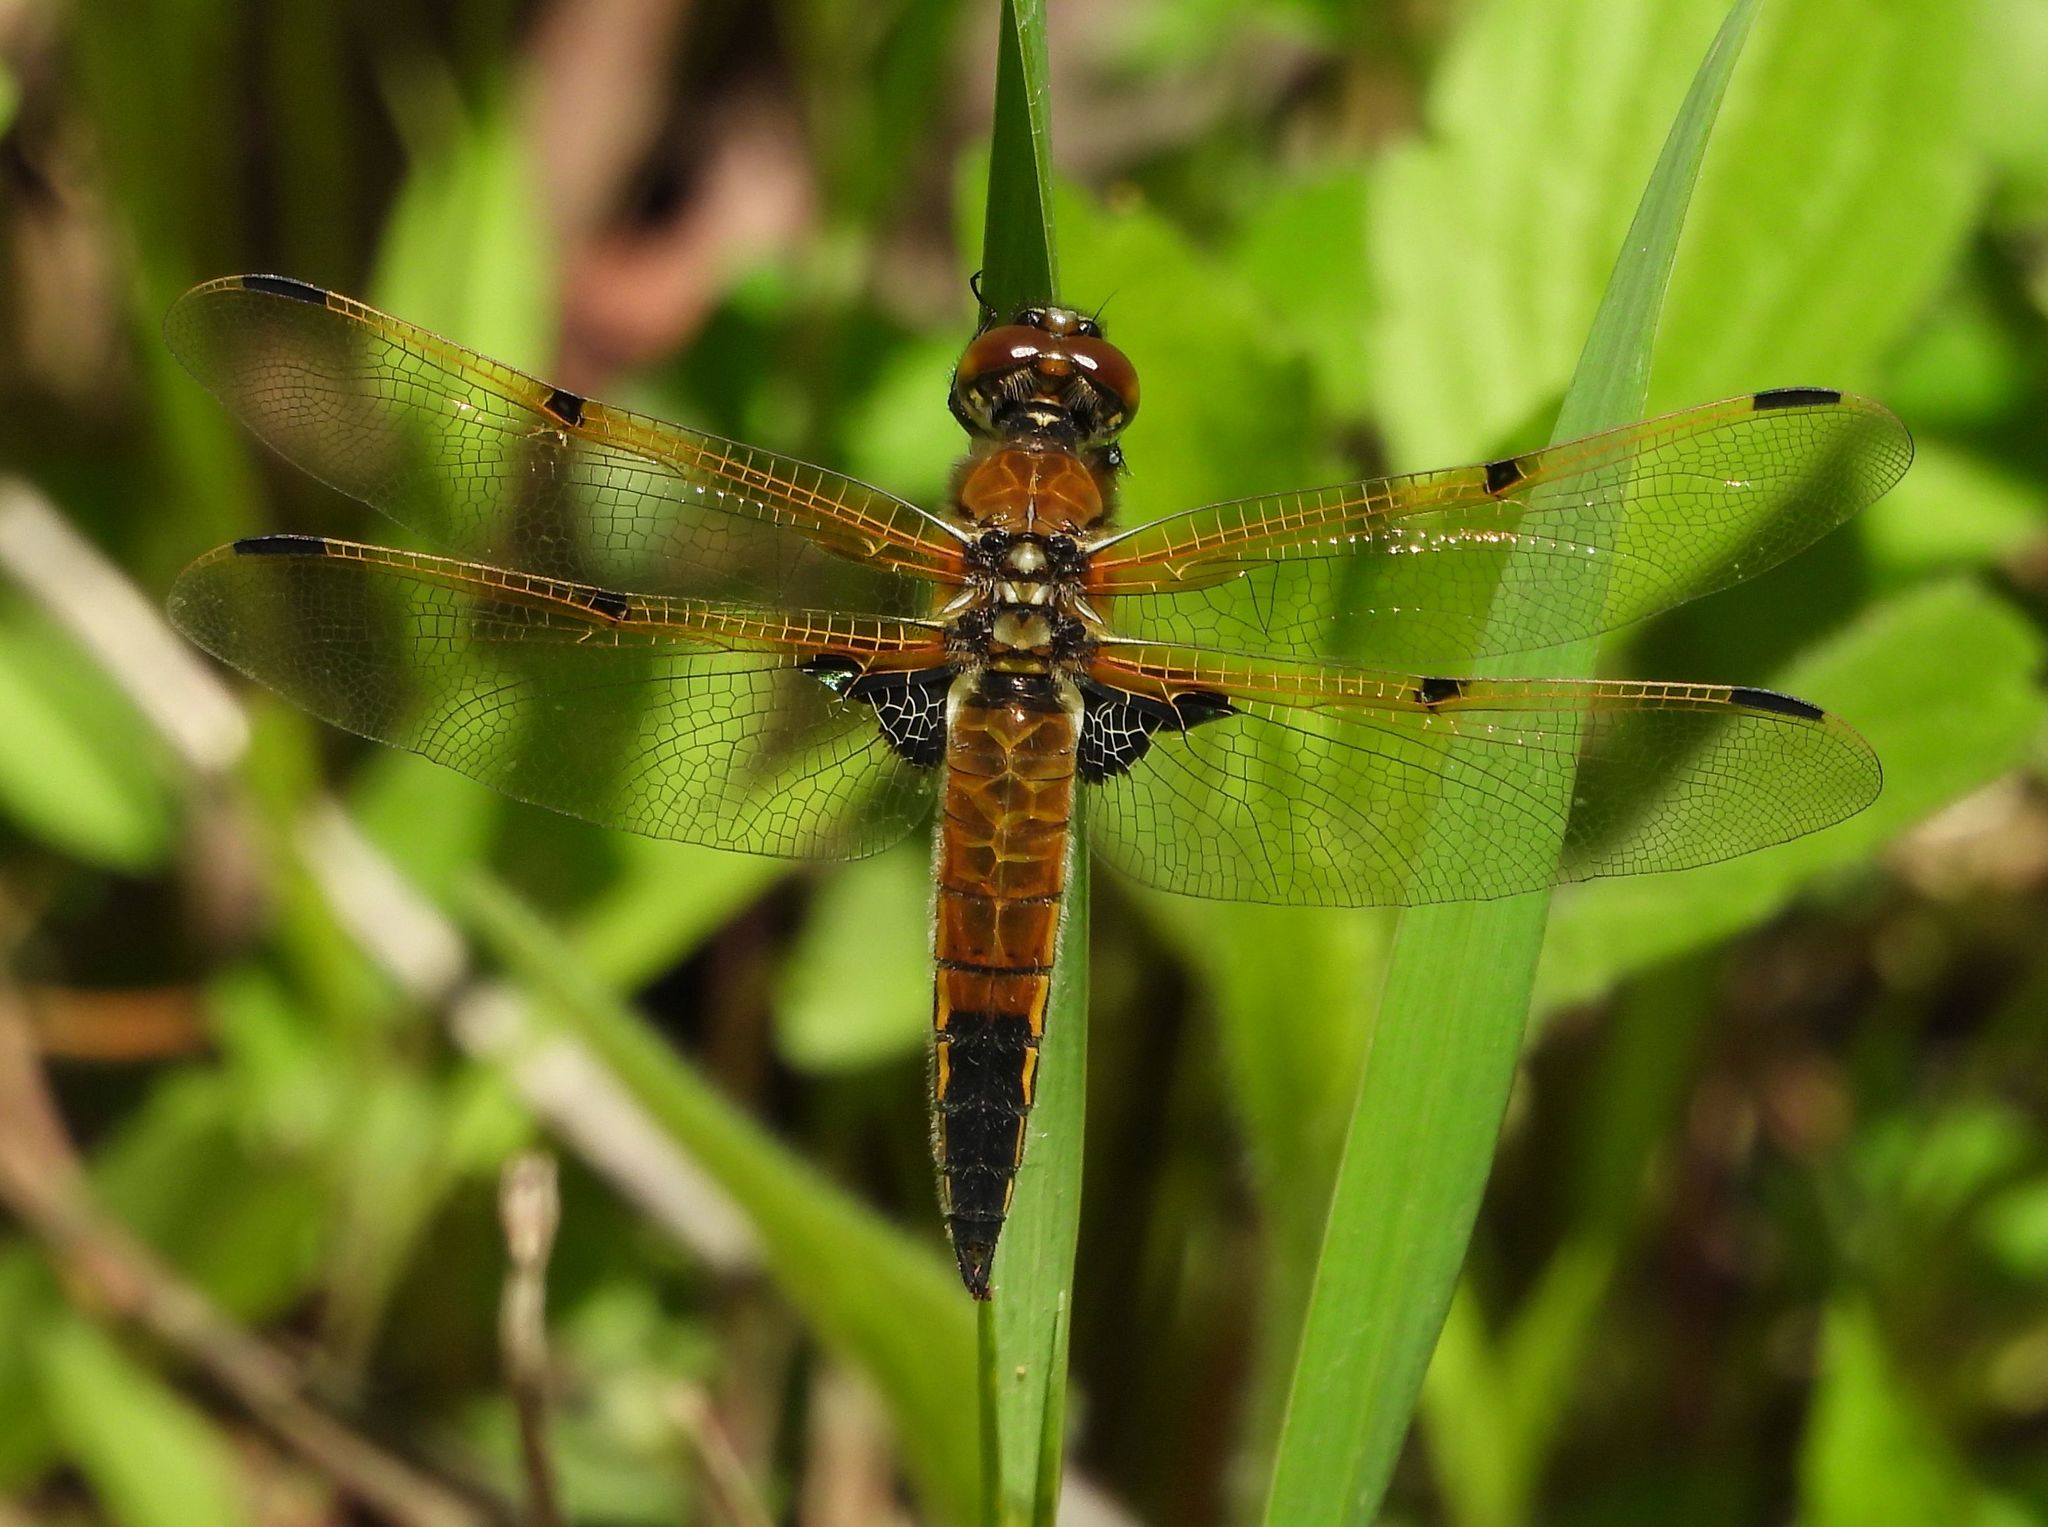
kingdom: Animalia
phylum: Arthropoda
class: Insecta
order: Odonata
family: Libellulidae
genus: Libellula
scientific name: Libellula quadrimaculata
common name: Four-spotted chaser
